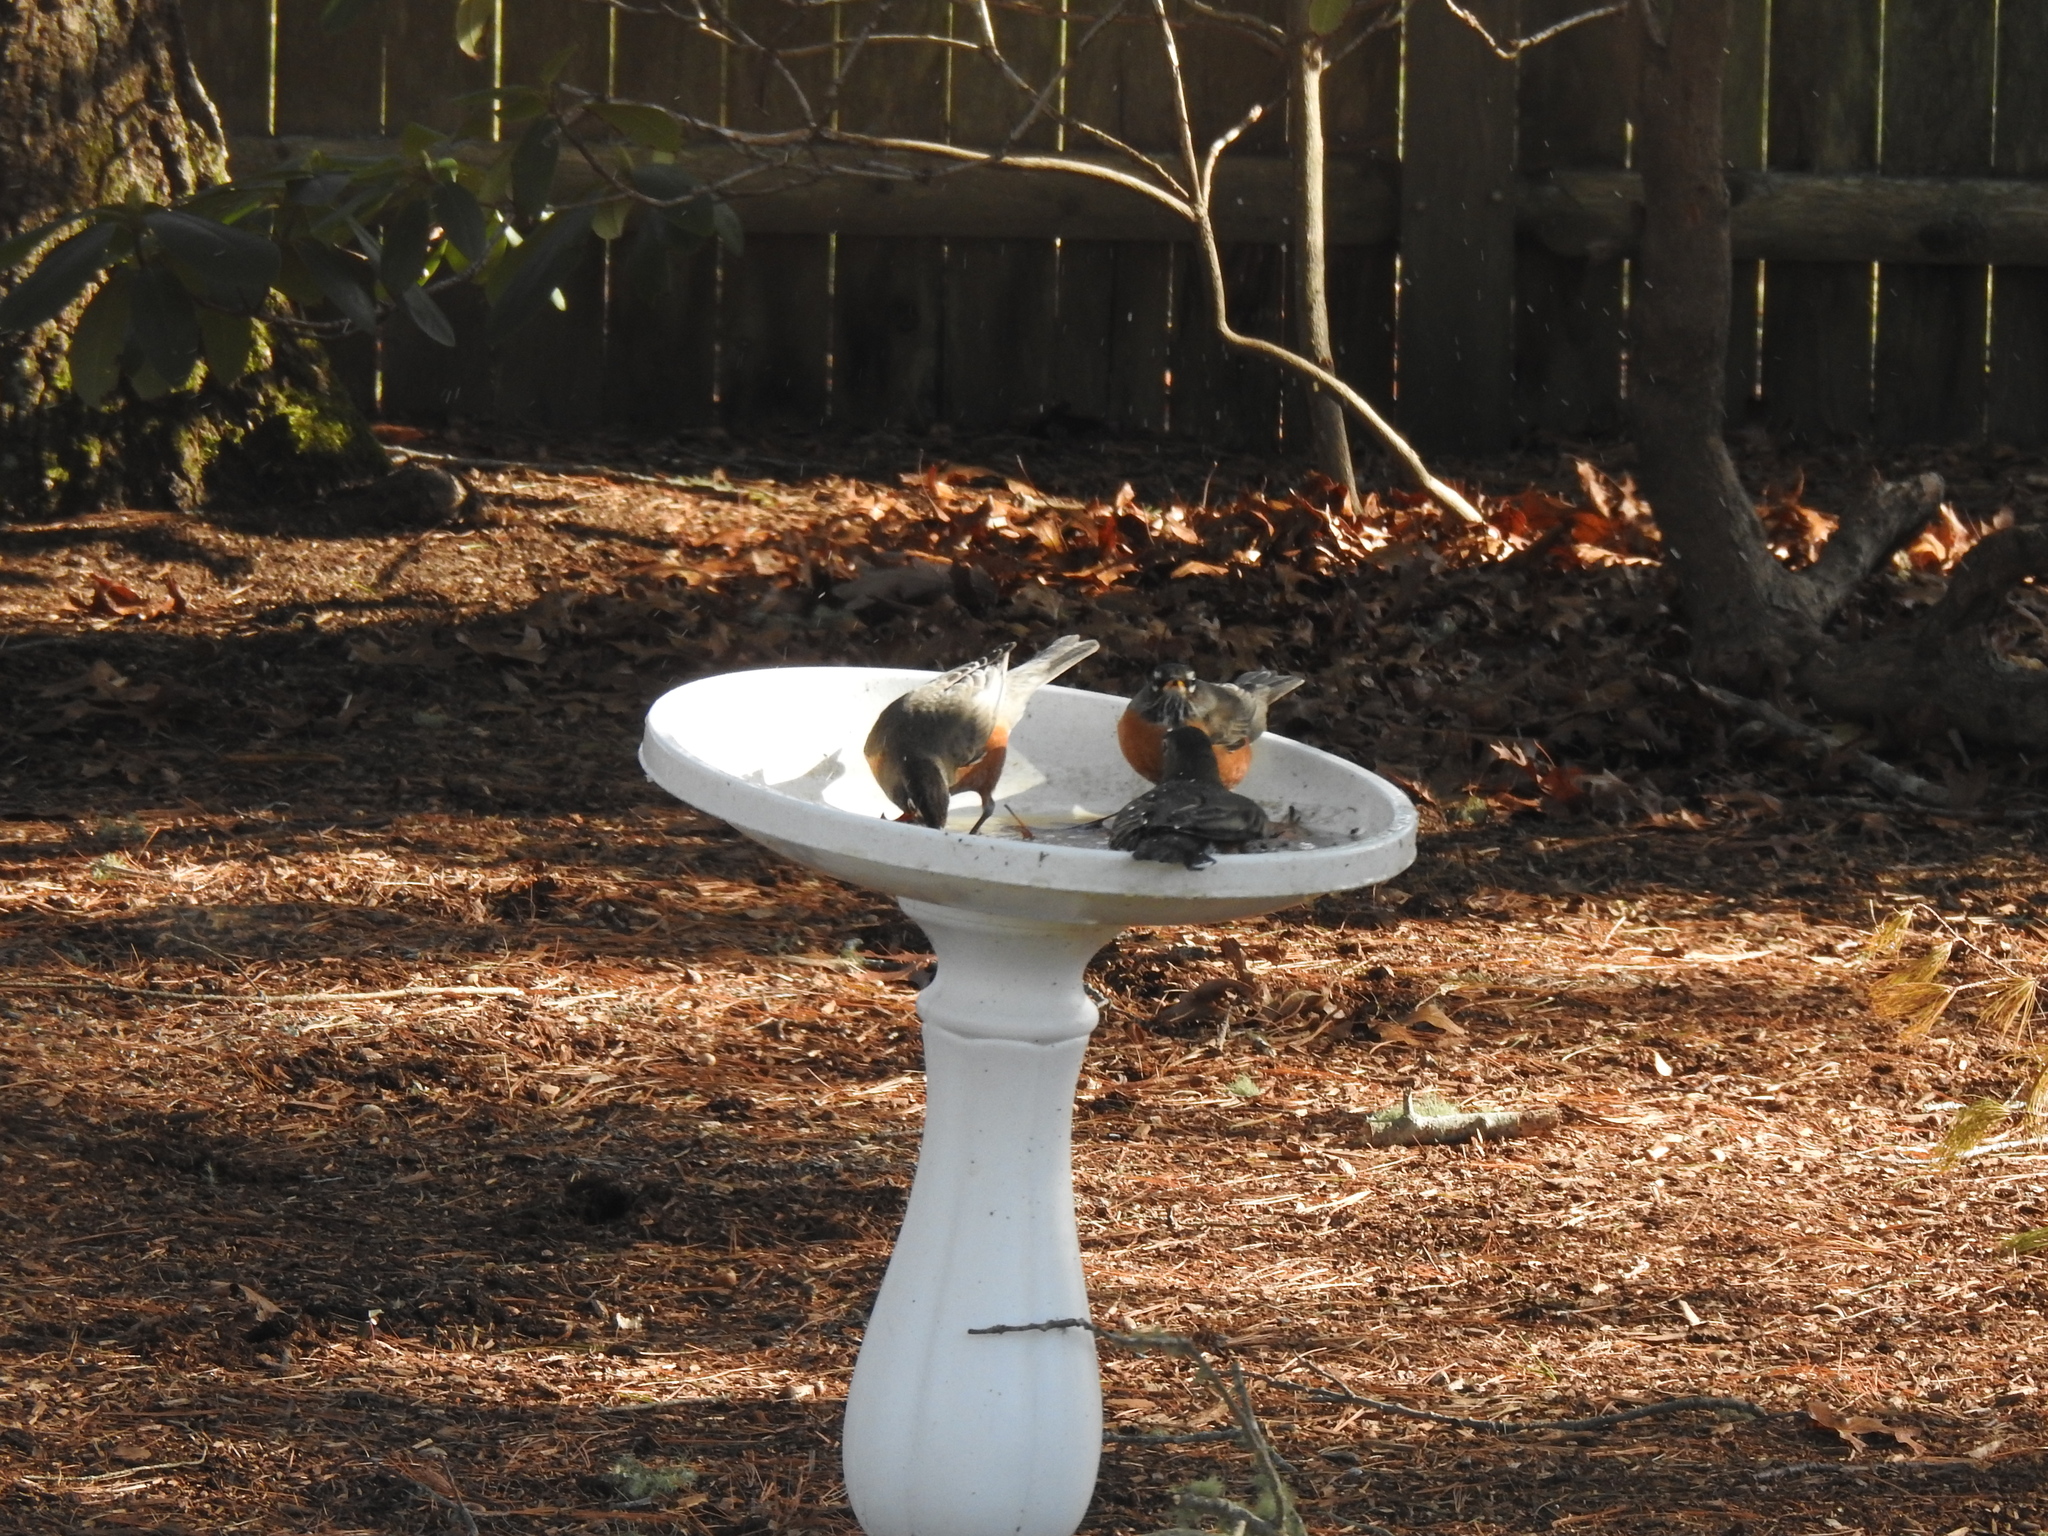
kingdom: Animalia
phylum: Chordata
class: Aves
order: Passeriformes
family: Turdidae
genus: Turdus
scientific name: Turdus migratorius
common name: American robin
